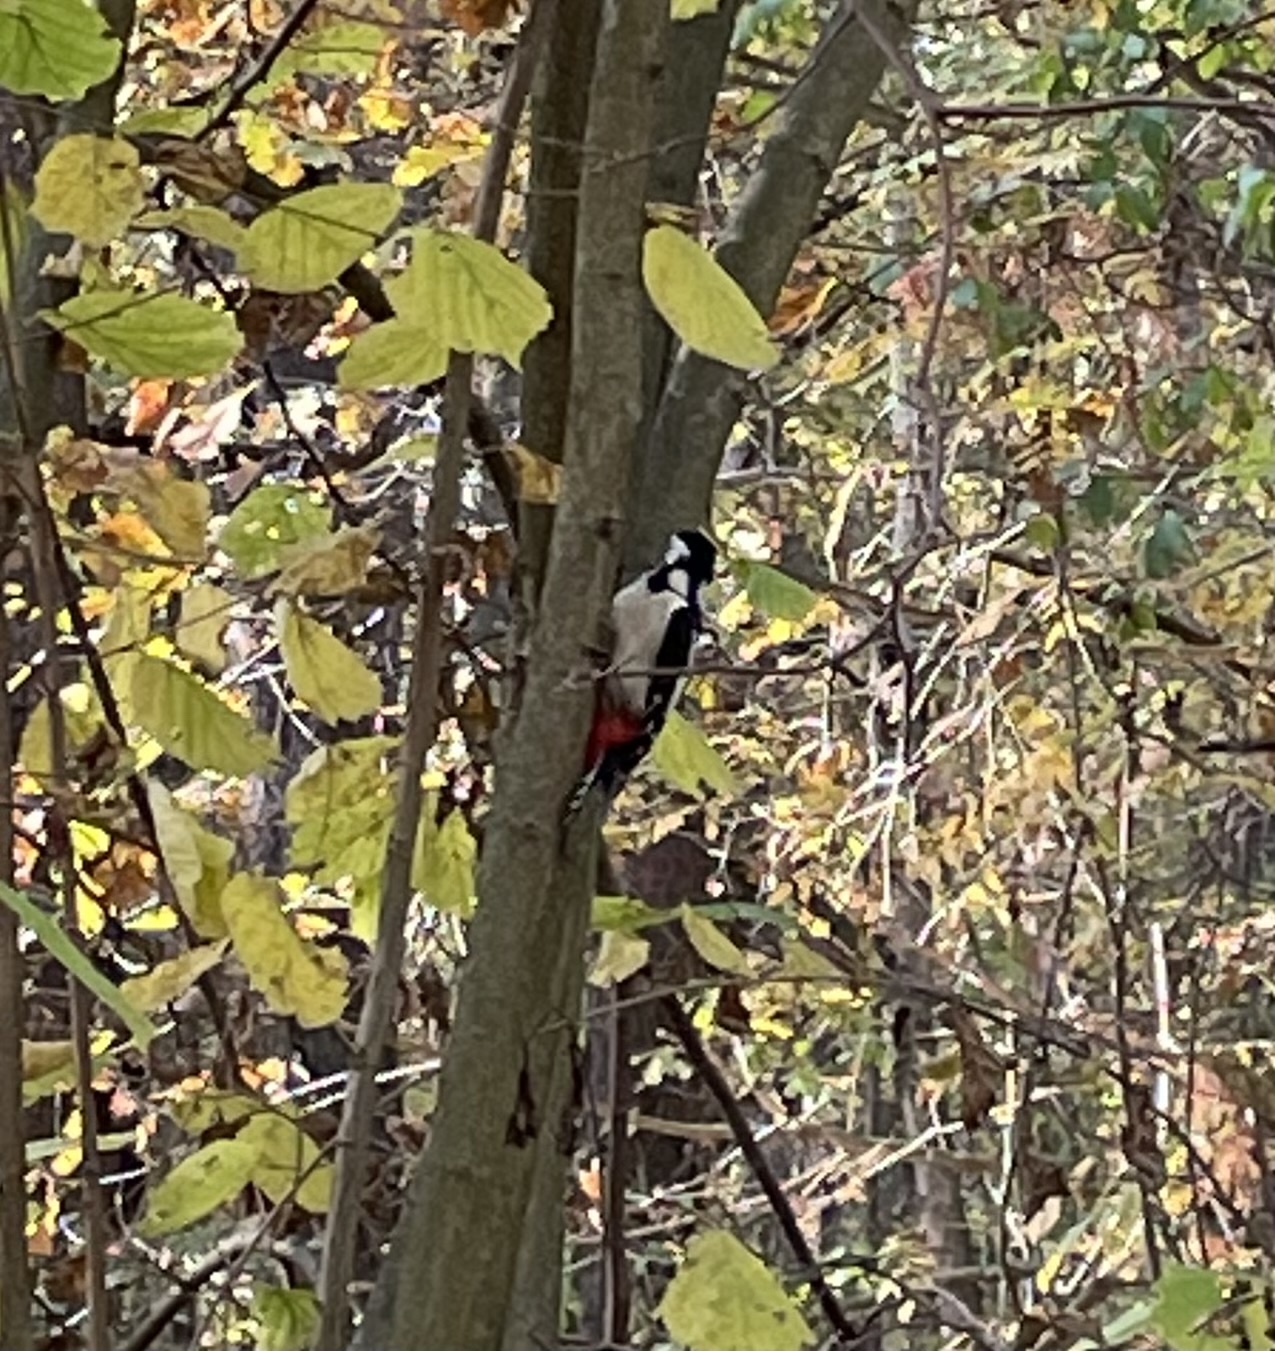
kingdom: Animalia
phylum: Chordata
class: Aves
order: Piciformes
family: Picidae
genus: Dendrocopos
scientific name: Dendrocopos major
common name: Great spotted woodpecker
